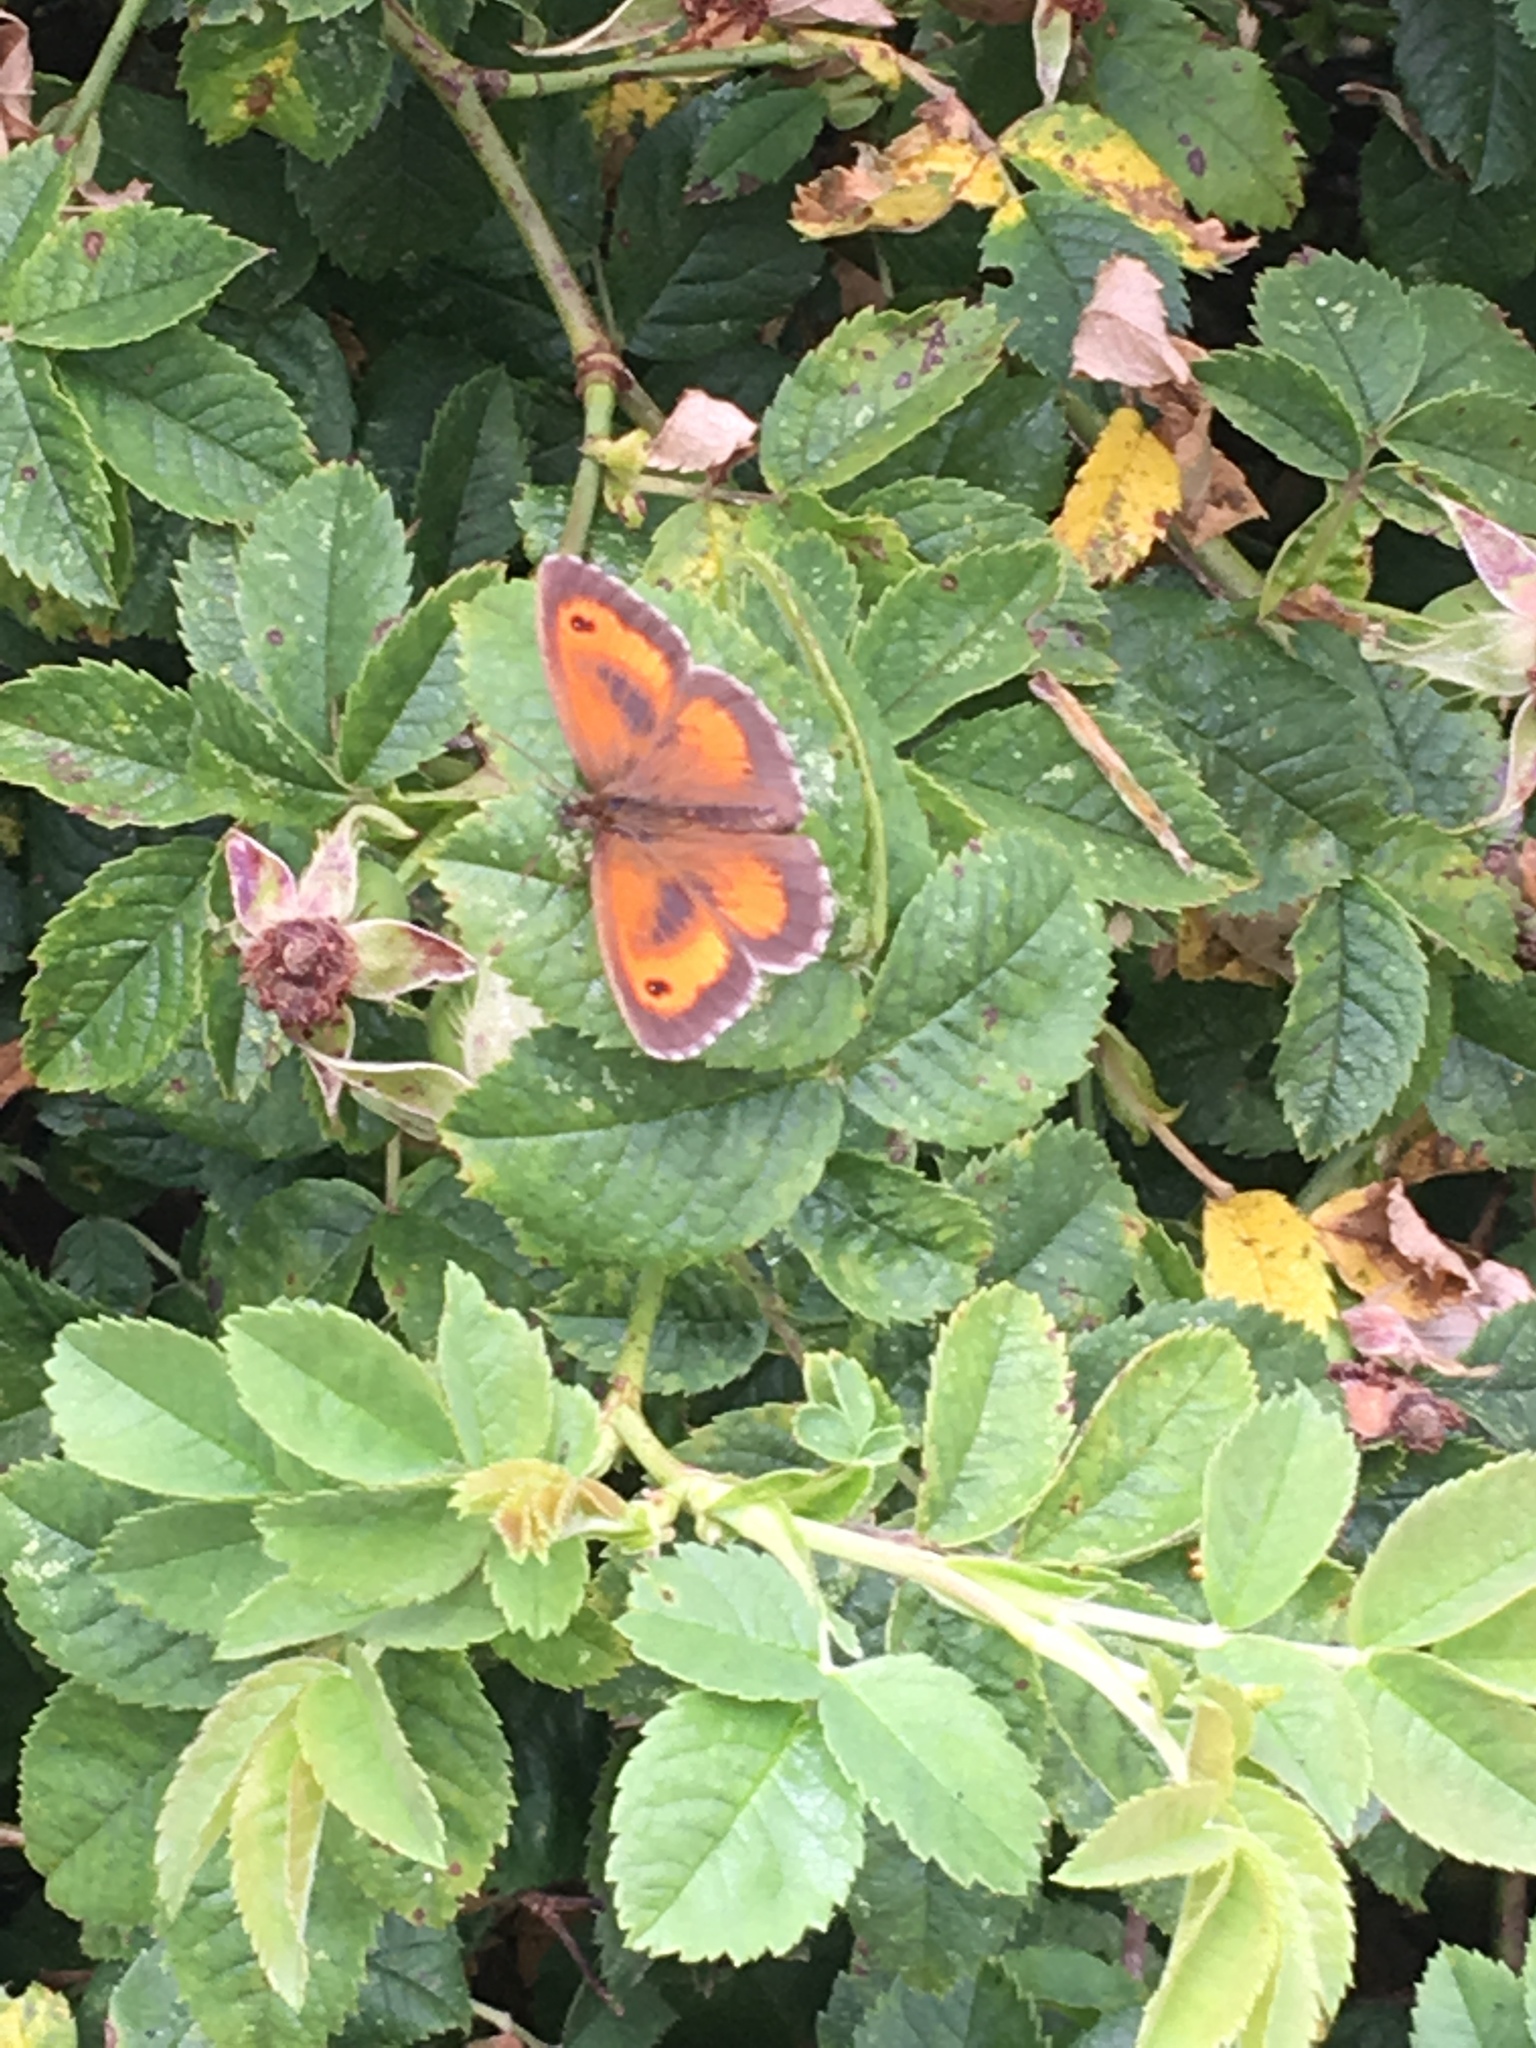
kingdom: Animalia
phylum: Arthropoda
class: Insecta
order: Lepidoptera
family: Nymphalidae
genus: Pyronia
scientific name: Pyronia tithonus
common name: Gatekeeper
